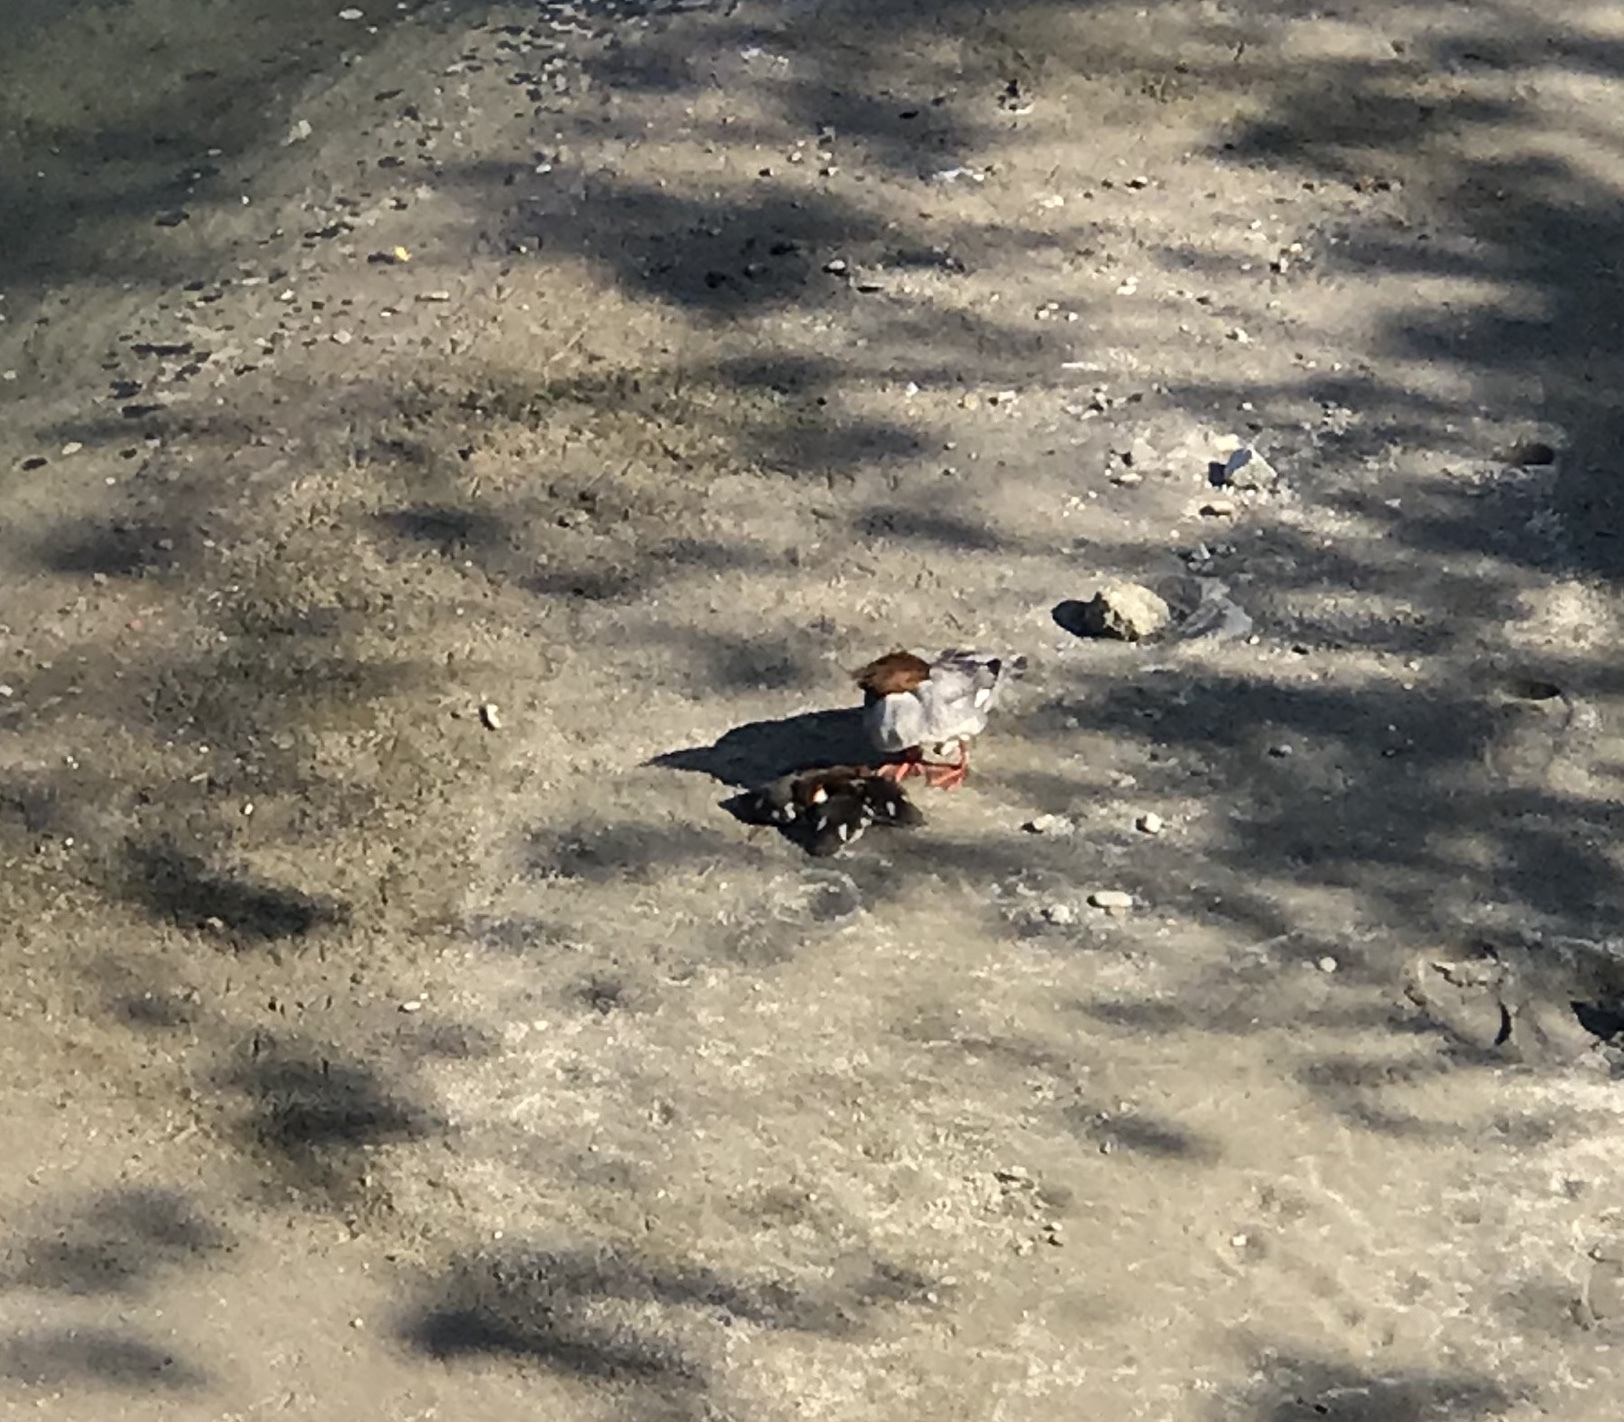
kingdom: Animalia
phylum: Chordata
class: Aves
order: Anseriformes
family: Anatidae
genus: Mergus
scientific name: Mergus merganser
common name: Common merganser
